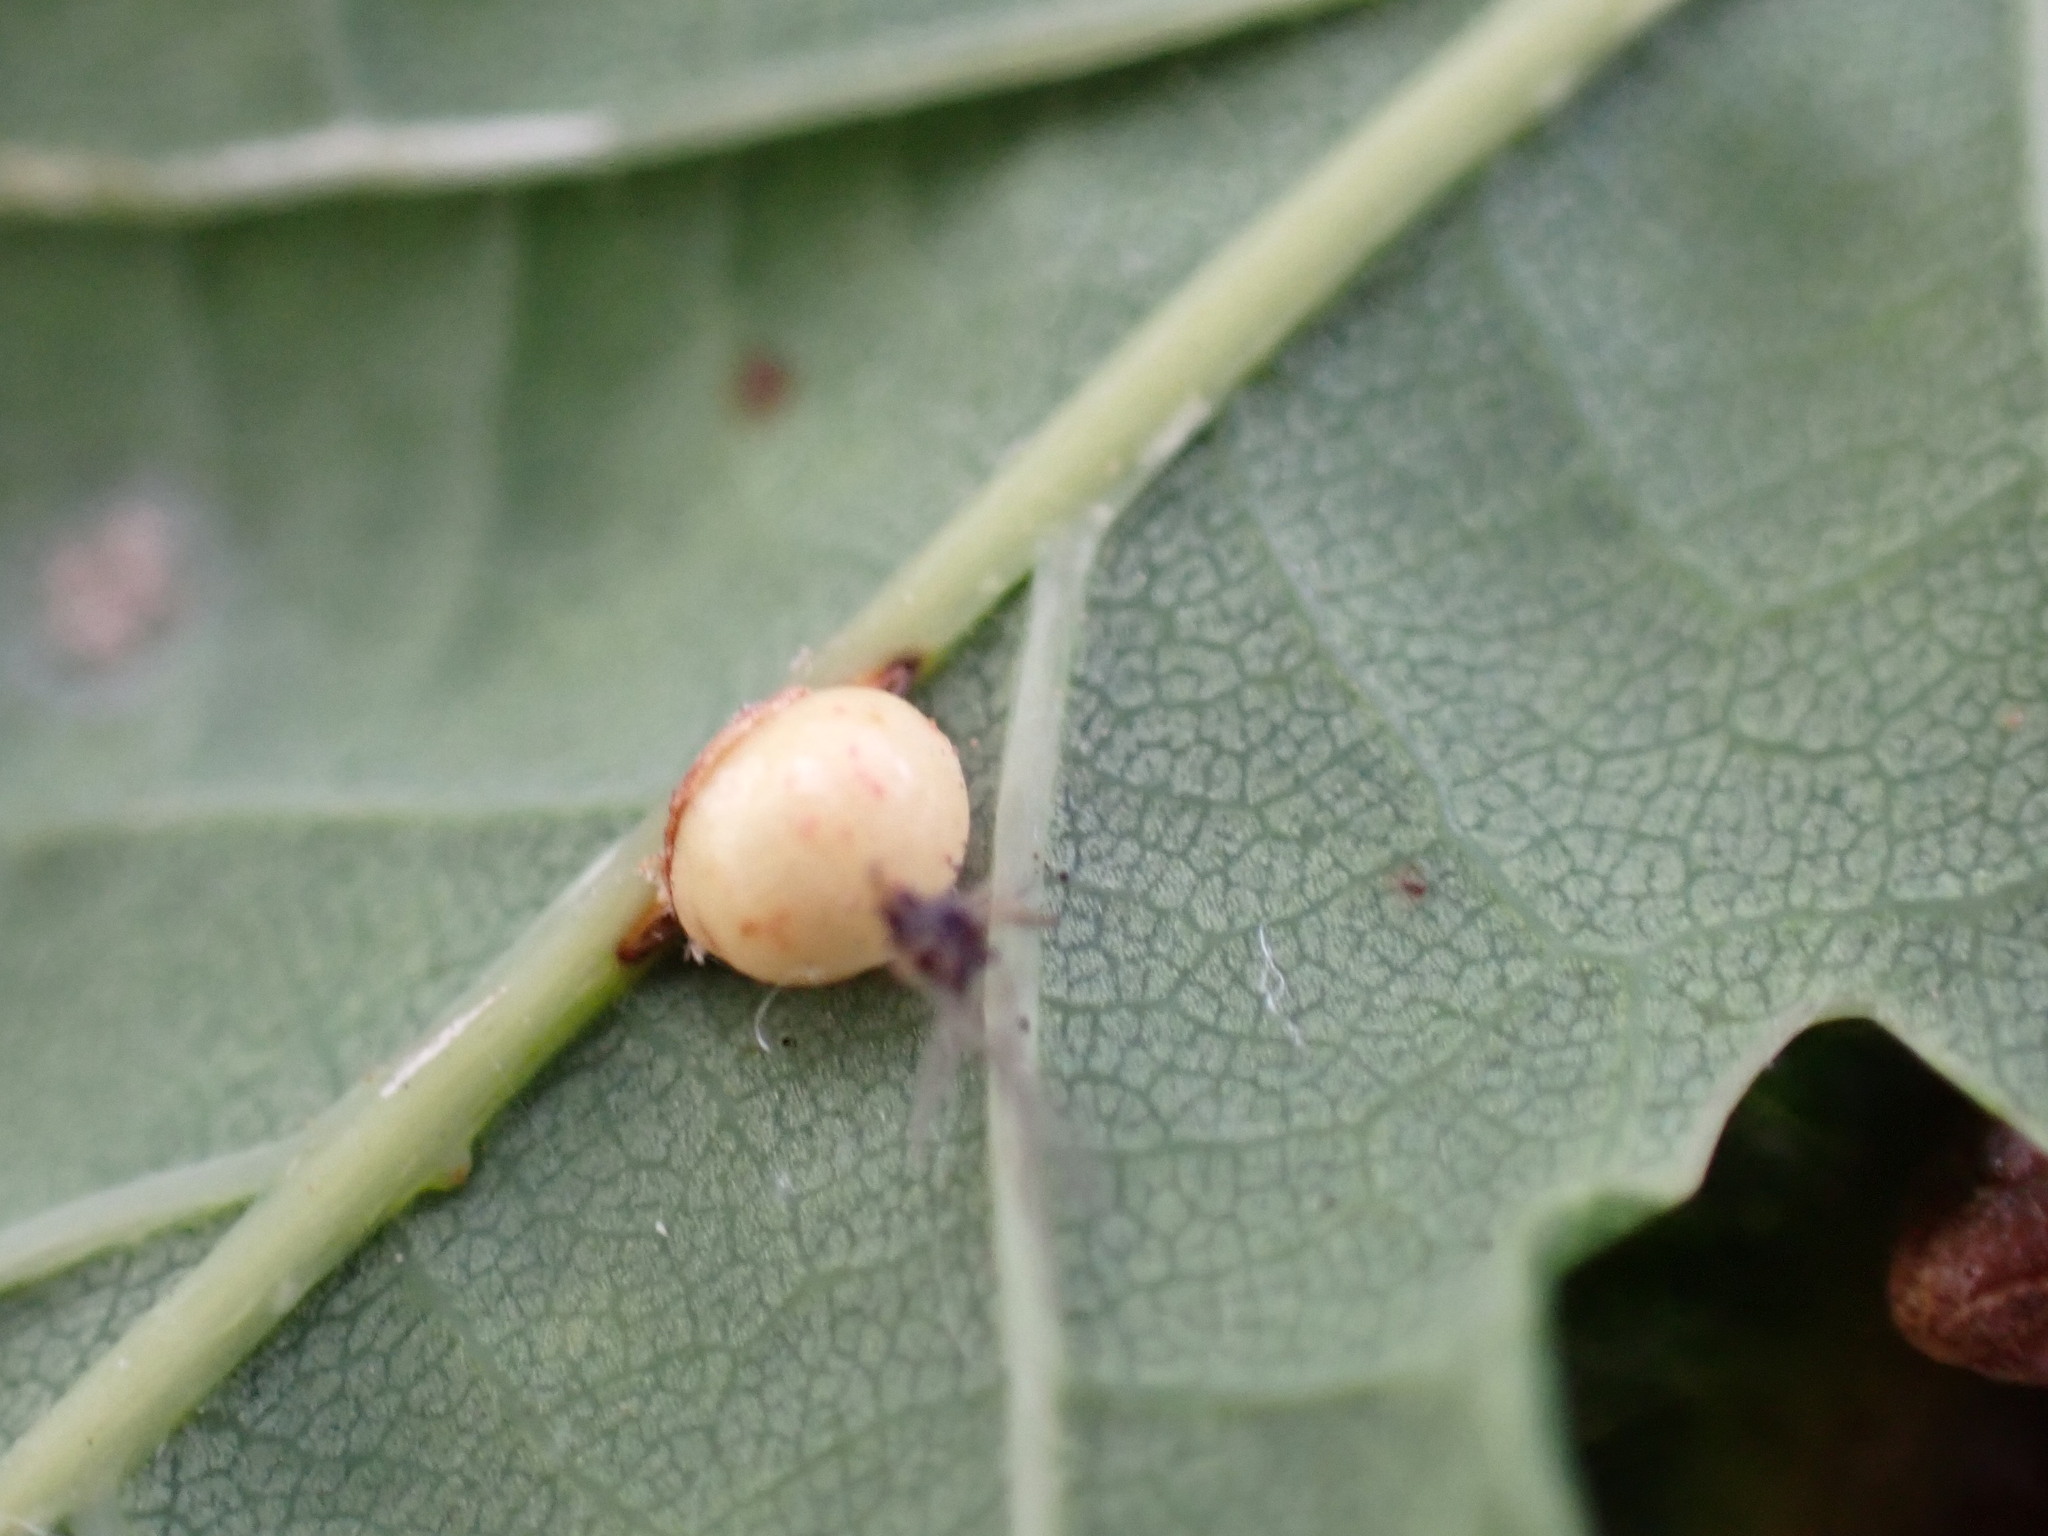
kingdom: Animalia
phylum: Arthropoda
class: Insecta
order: Hymenoptera
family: Cynipidae
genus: Neuroterus
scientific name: Neuroterus anthracinus
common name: Oyster gall
